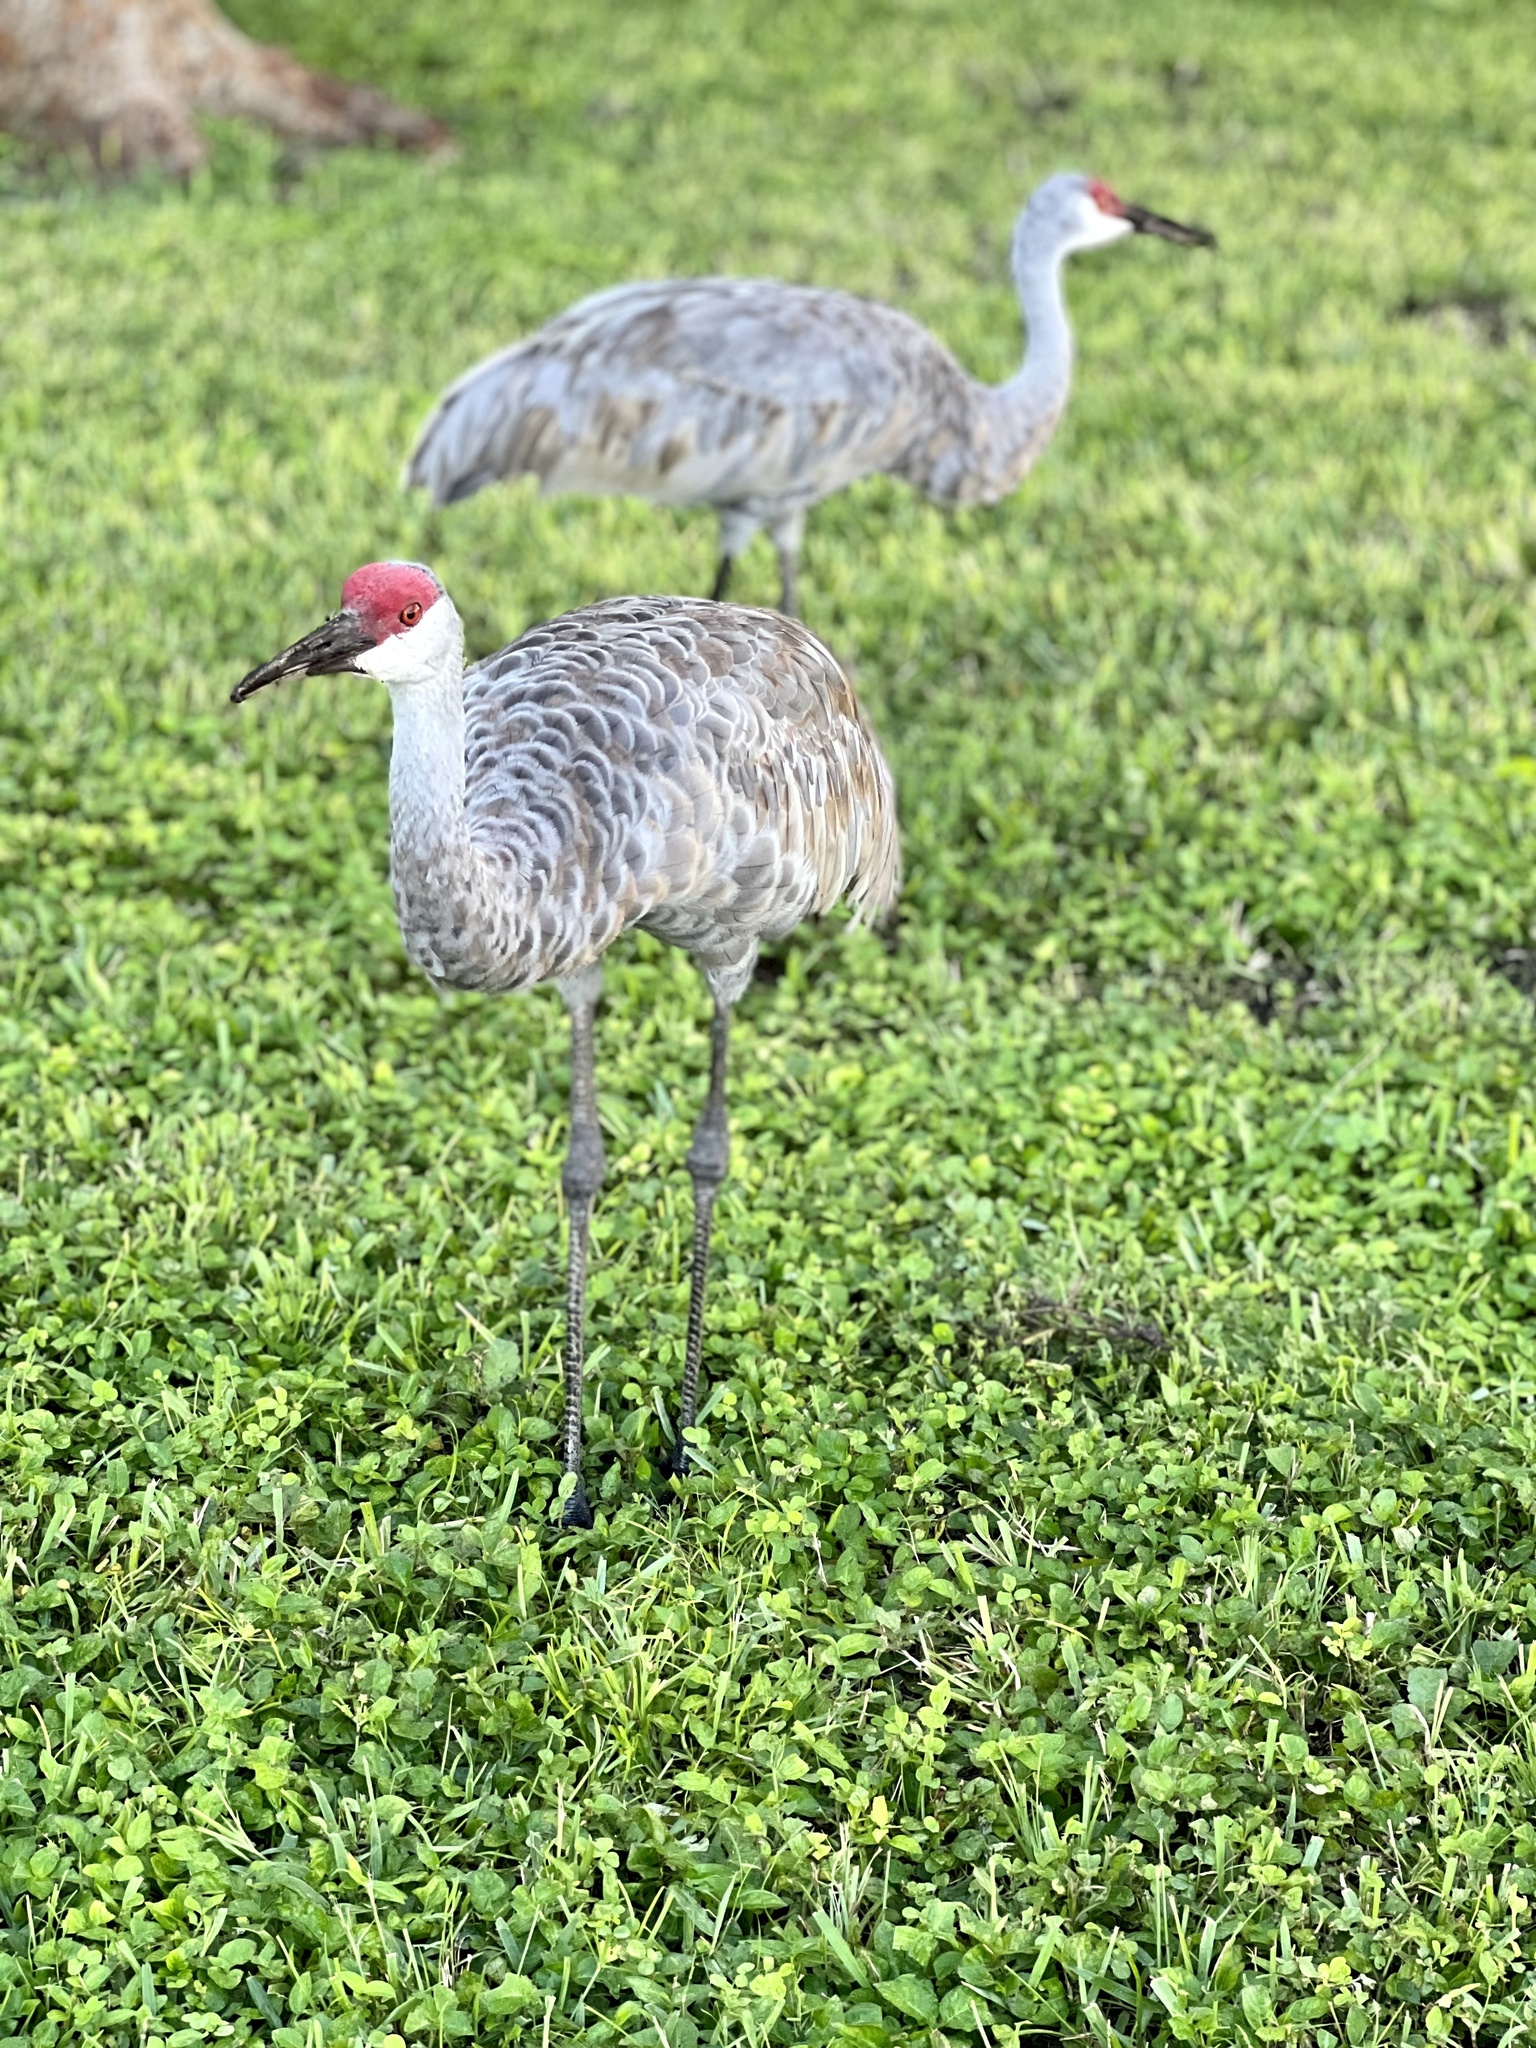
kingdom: Animalia
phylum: Chordata
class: Aves
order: Gruiformes
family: Gruidae
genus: Grus
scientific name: Grus canadensis
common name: Sandhill crane
